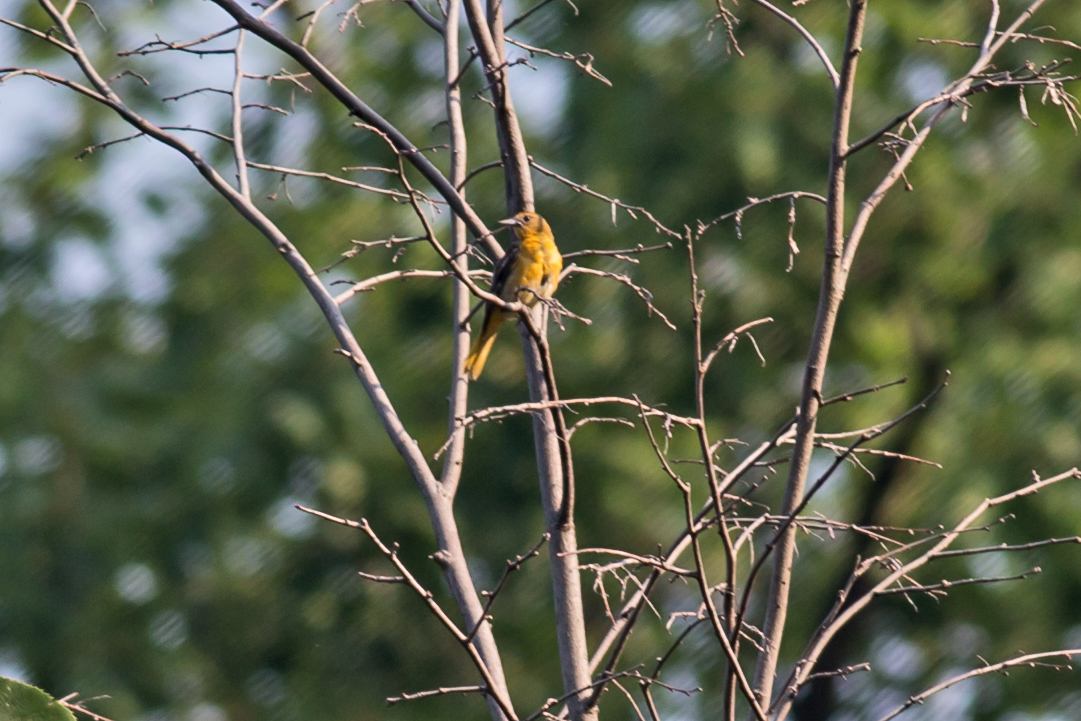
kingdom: Animalia
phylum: Chordata
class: Aves
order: Passeriformes
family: Icteridae
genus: Icterus
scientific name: Icterus galbula
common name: Baltimore oriole
